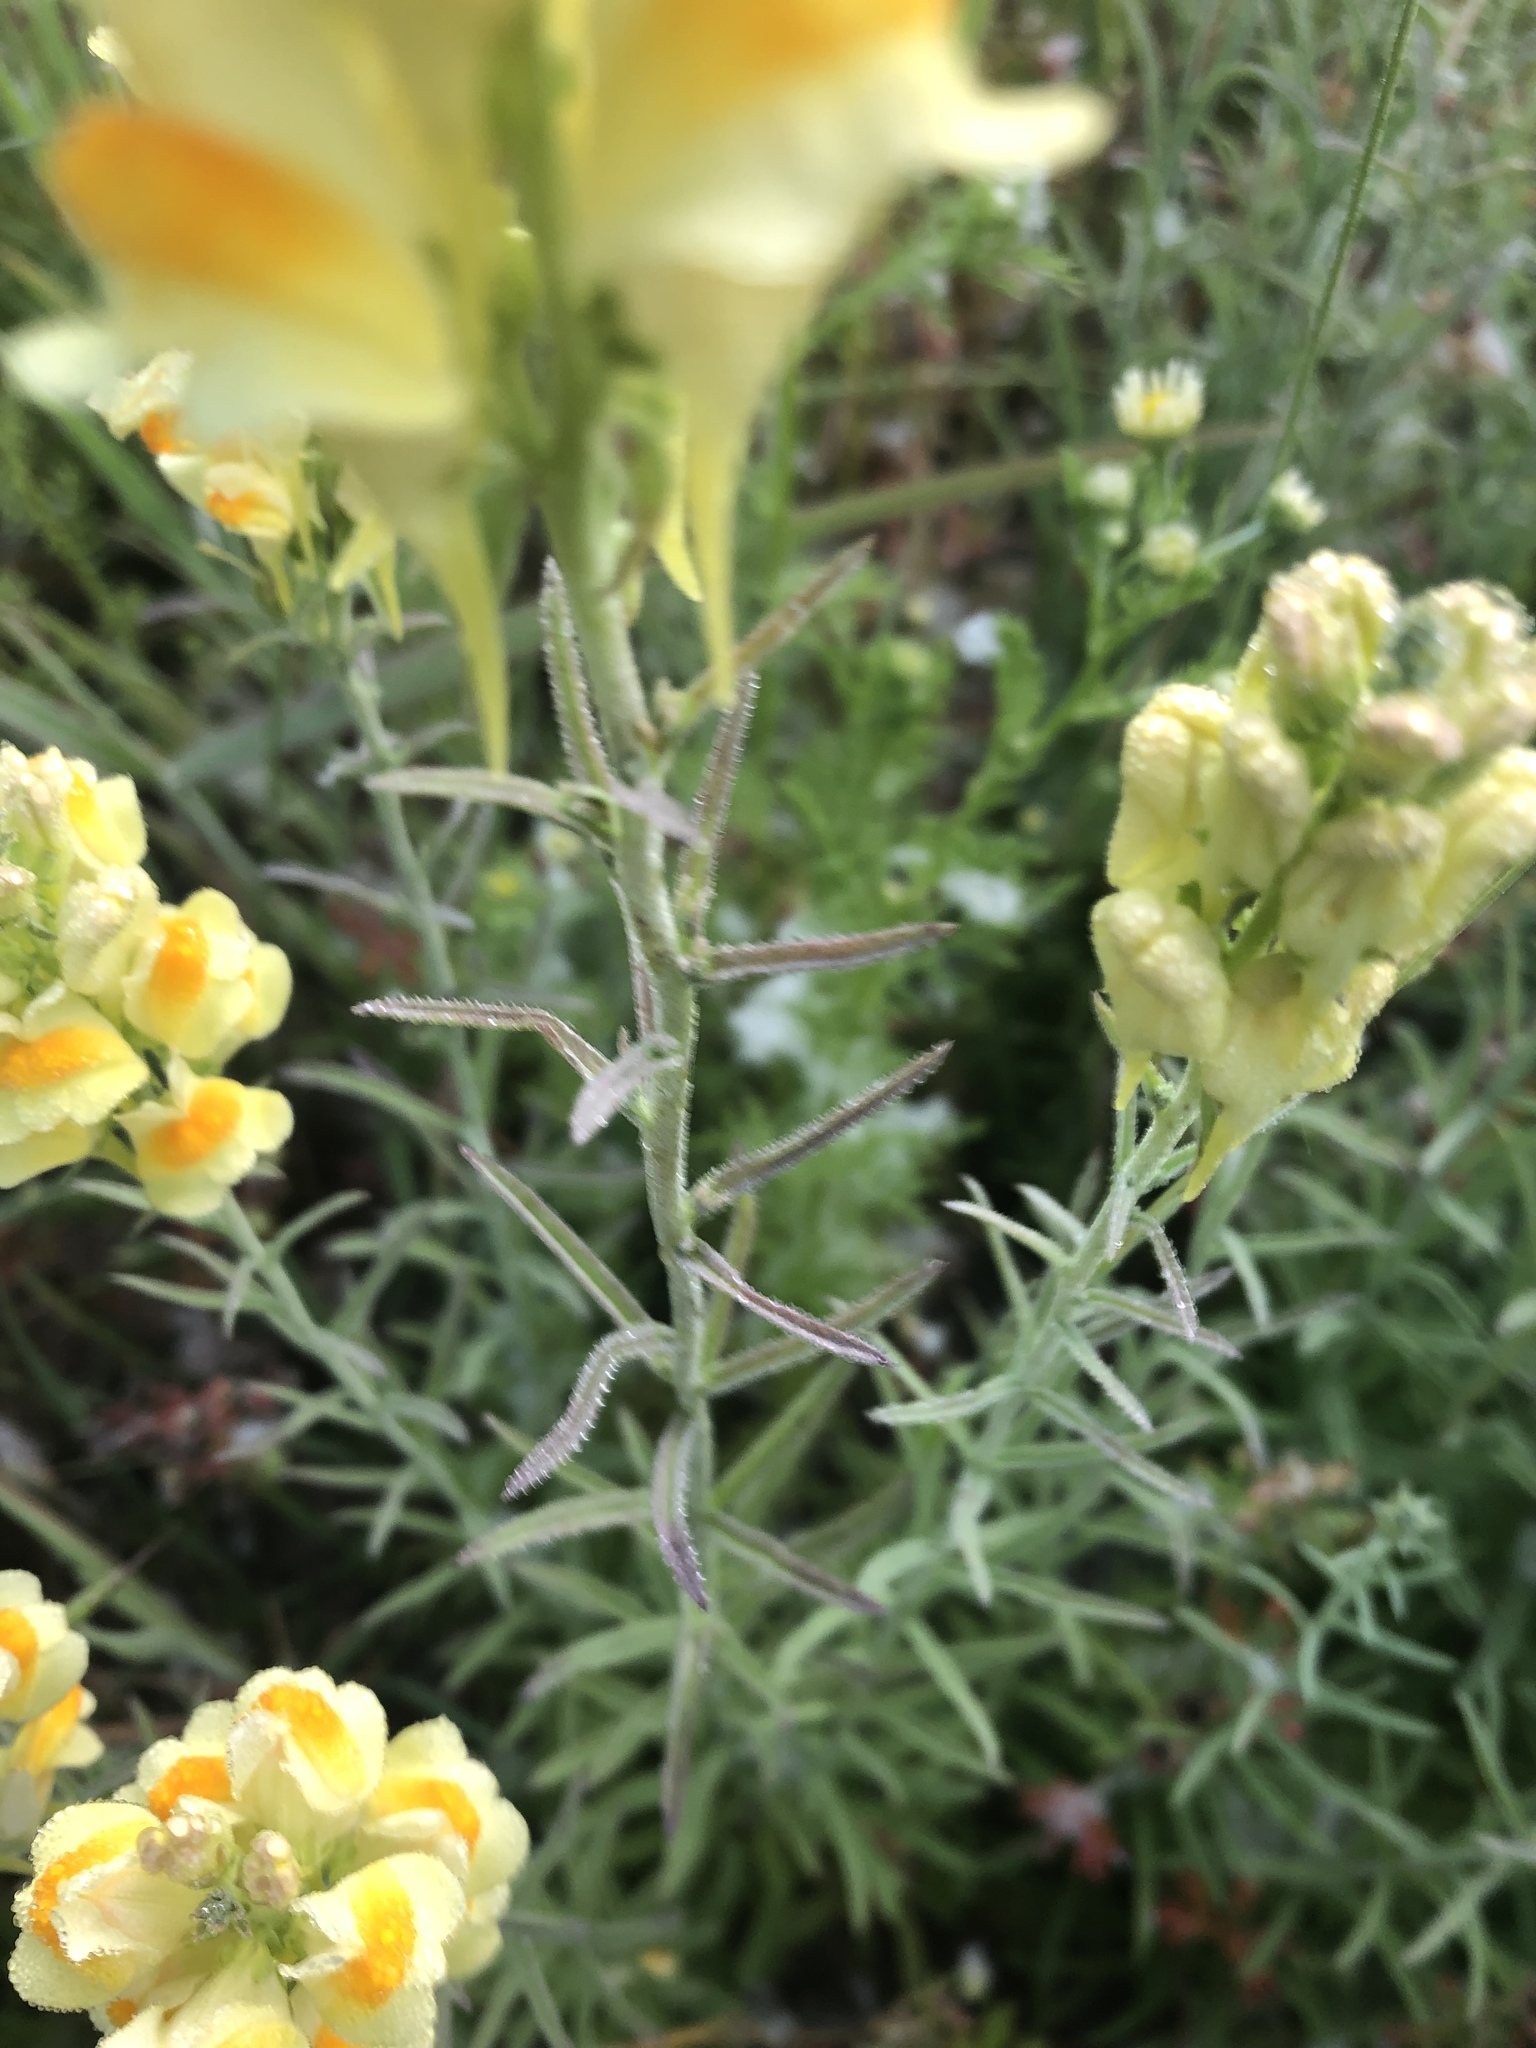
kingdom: Plantae
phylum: Tracheophyta
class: Magnoliopsida
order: Lamiales
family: Plantaginaceae
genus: Linaria
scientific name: Linaria vulgaris
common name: Butter and eggs
